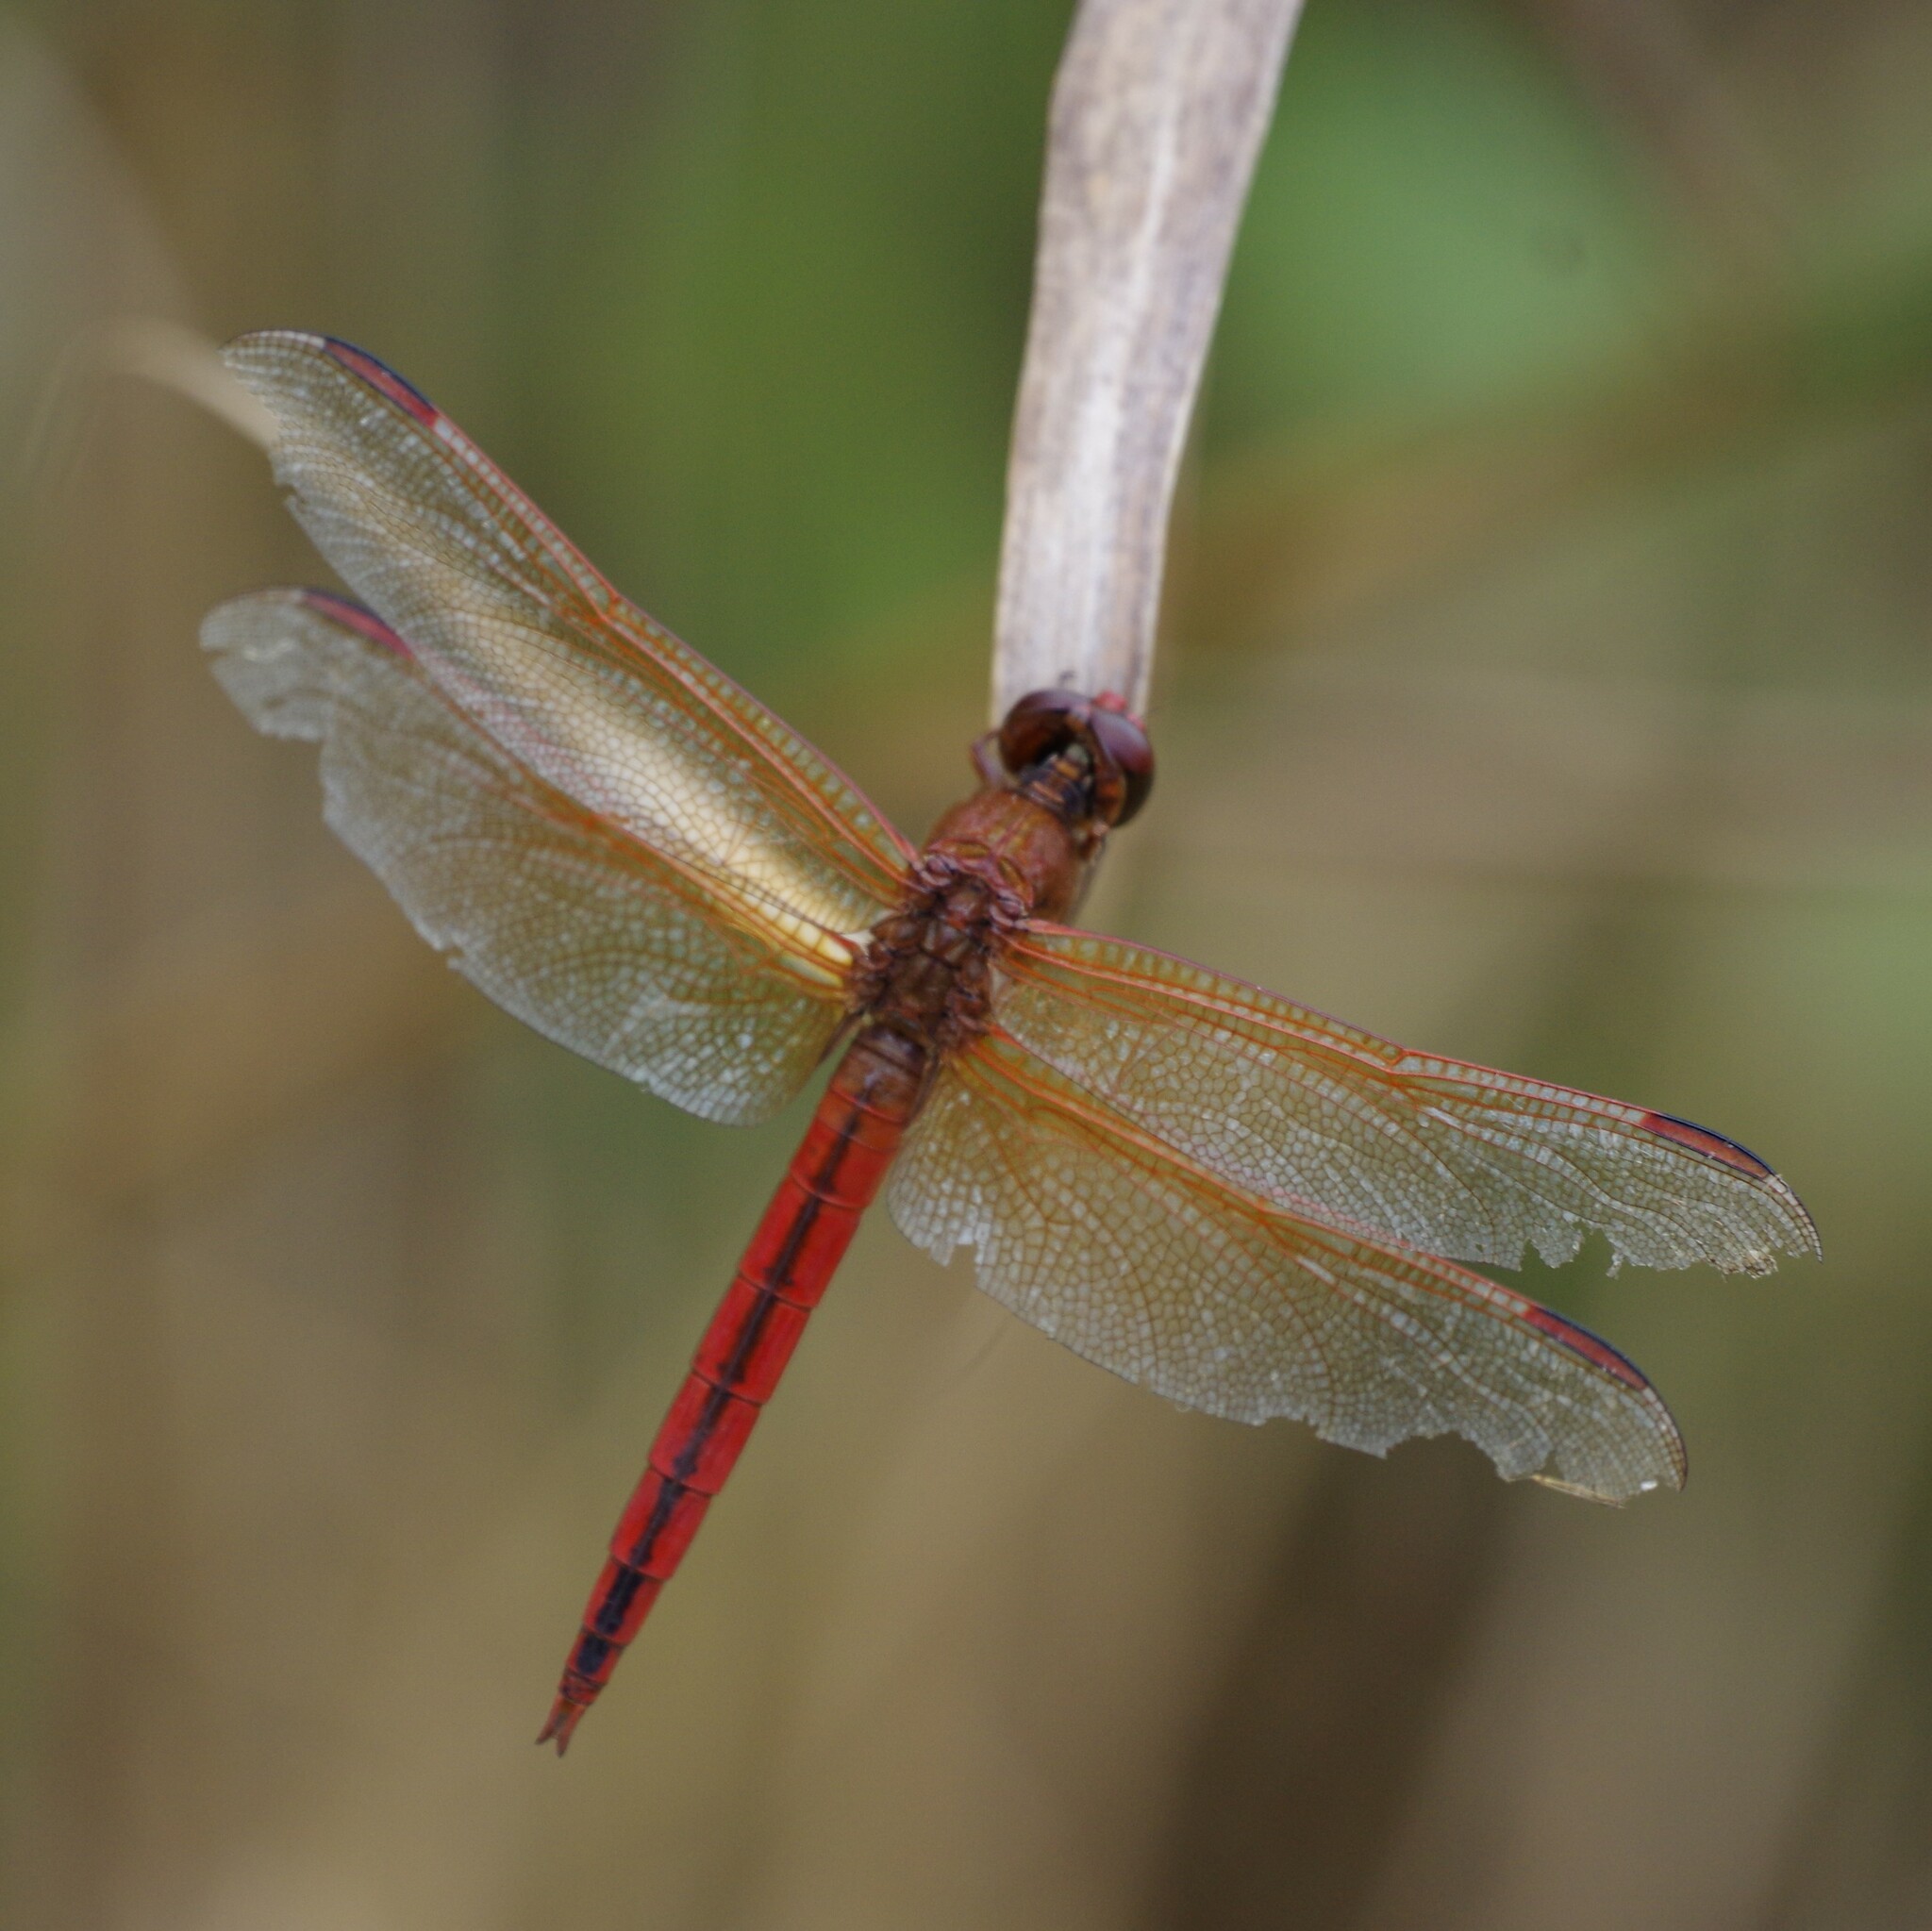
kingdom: Animalia
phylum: Arthropoda
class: Insecta
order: Odonata
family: Libellulidae
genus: Libellula
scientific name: Libellula needhami
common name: Needham's skimmer
